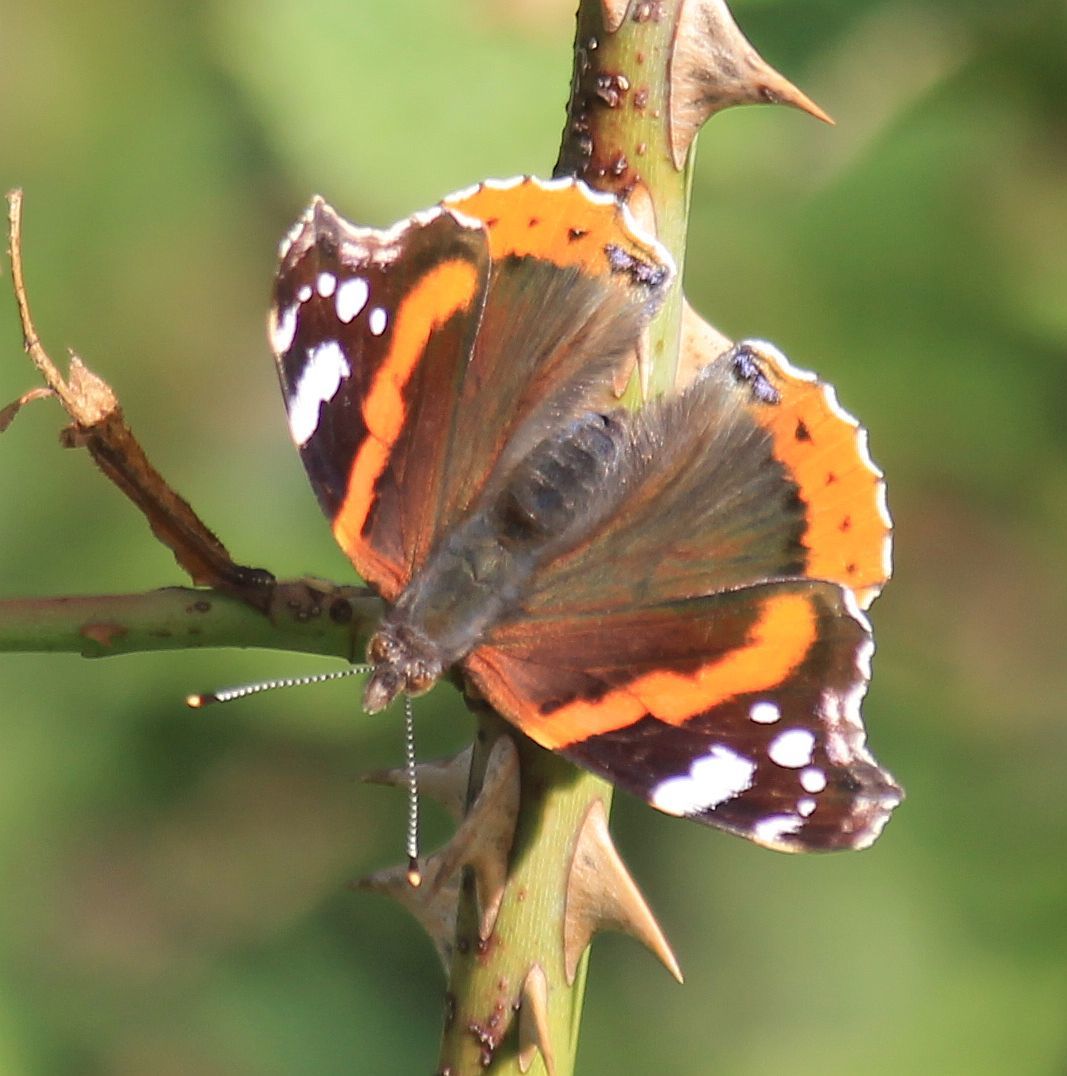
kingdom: Animalia
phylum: Arthropoda
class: Insecta
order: Lepidoptera
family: Nymphalidae
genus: Vanessa
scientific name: Vanessa atalanta
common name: Red admiral
